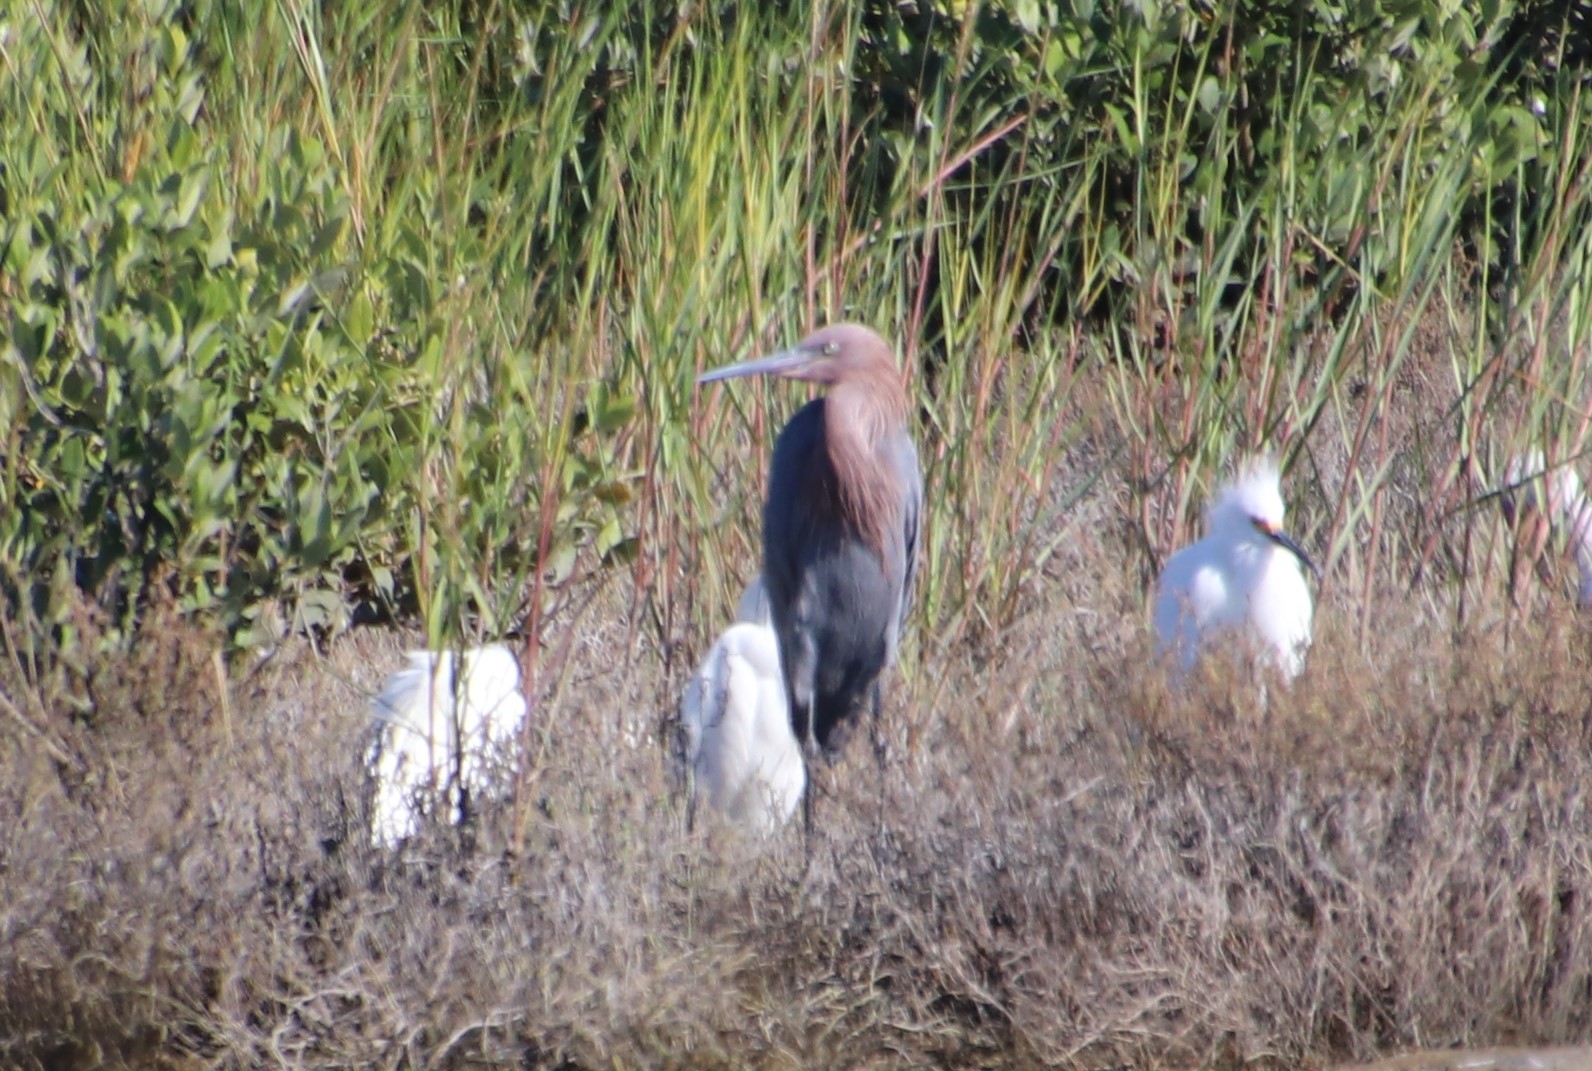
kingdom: Animalia
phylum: Chordata
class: Aves
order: Pelecaniformes
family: Ardeidae
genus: Egretta
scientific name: Egretta rufescens
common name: Reddish egret
